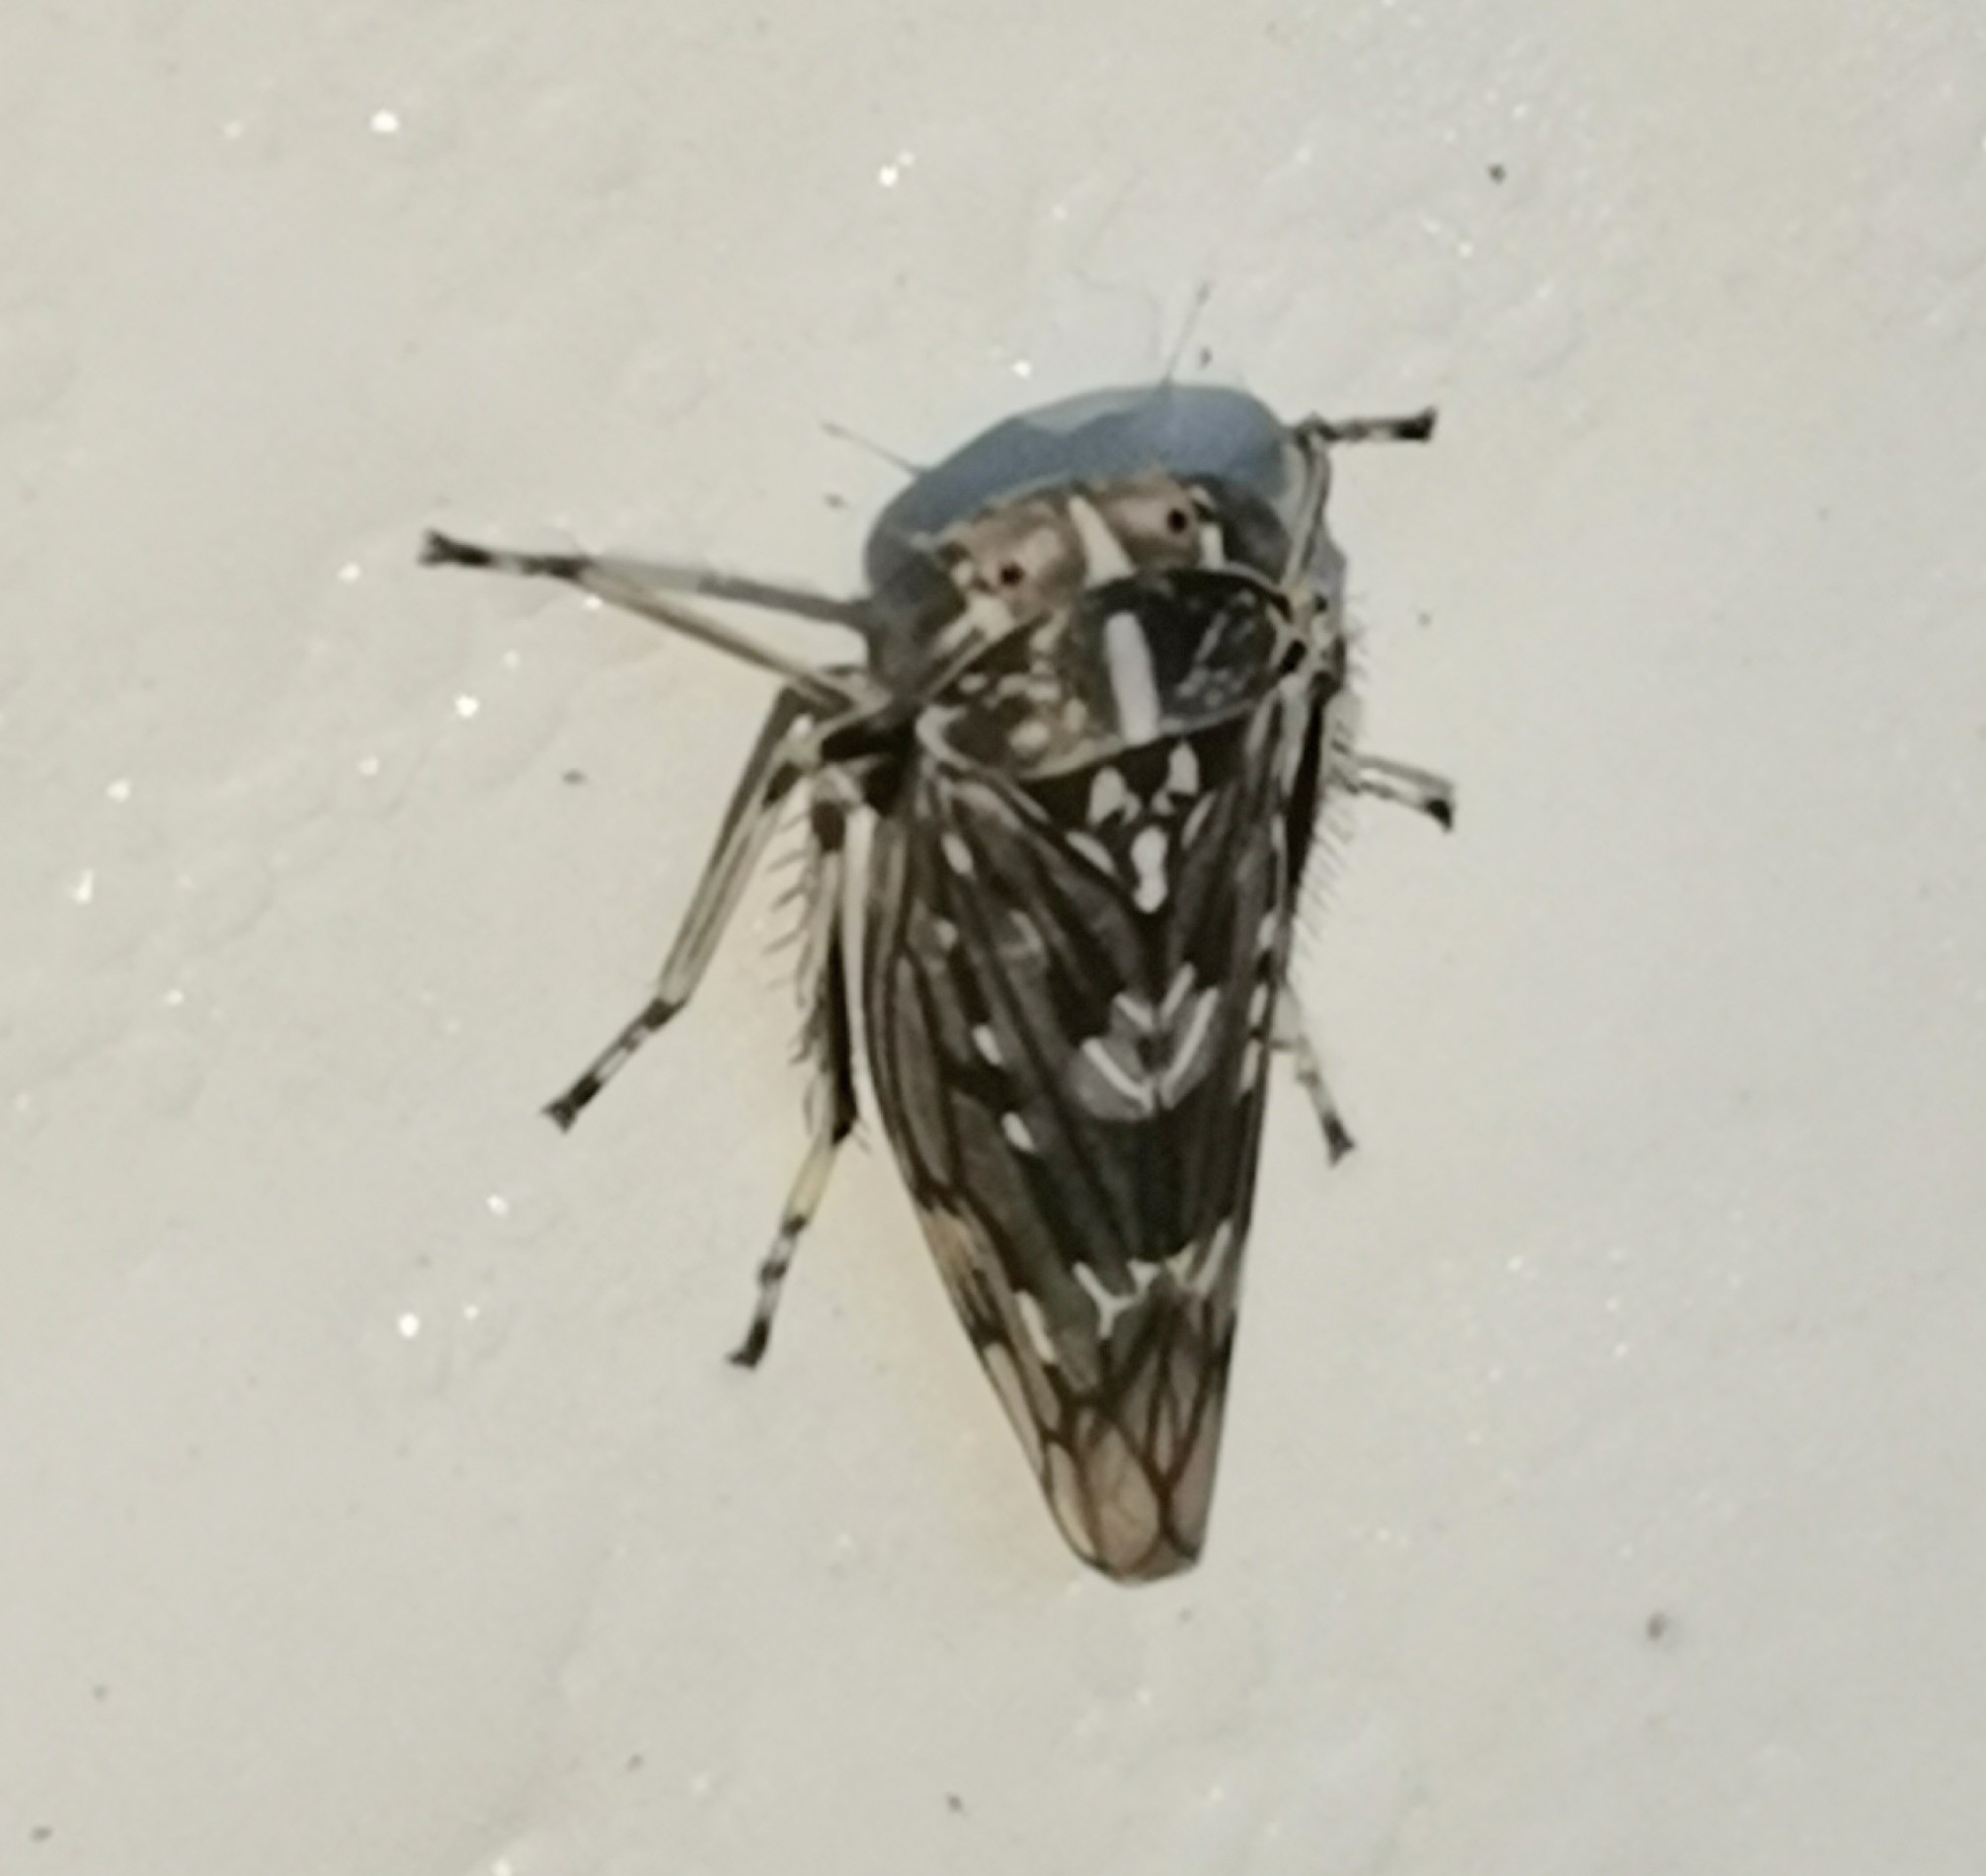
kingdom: Animalia
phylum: Arthropoda
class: Insecta
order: Hemiptera
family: Cicadellidae
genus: Metidiocerus
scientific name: Metidiocerus poecilus
